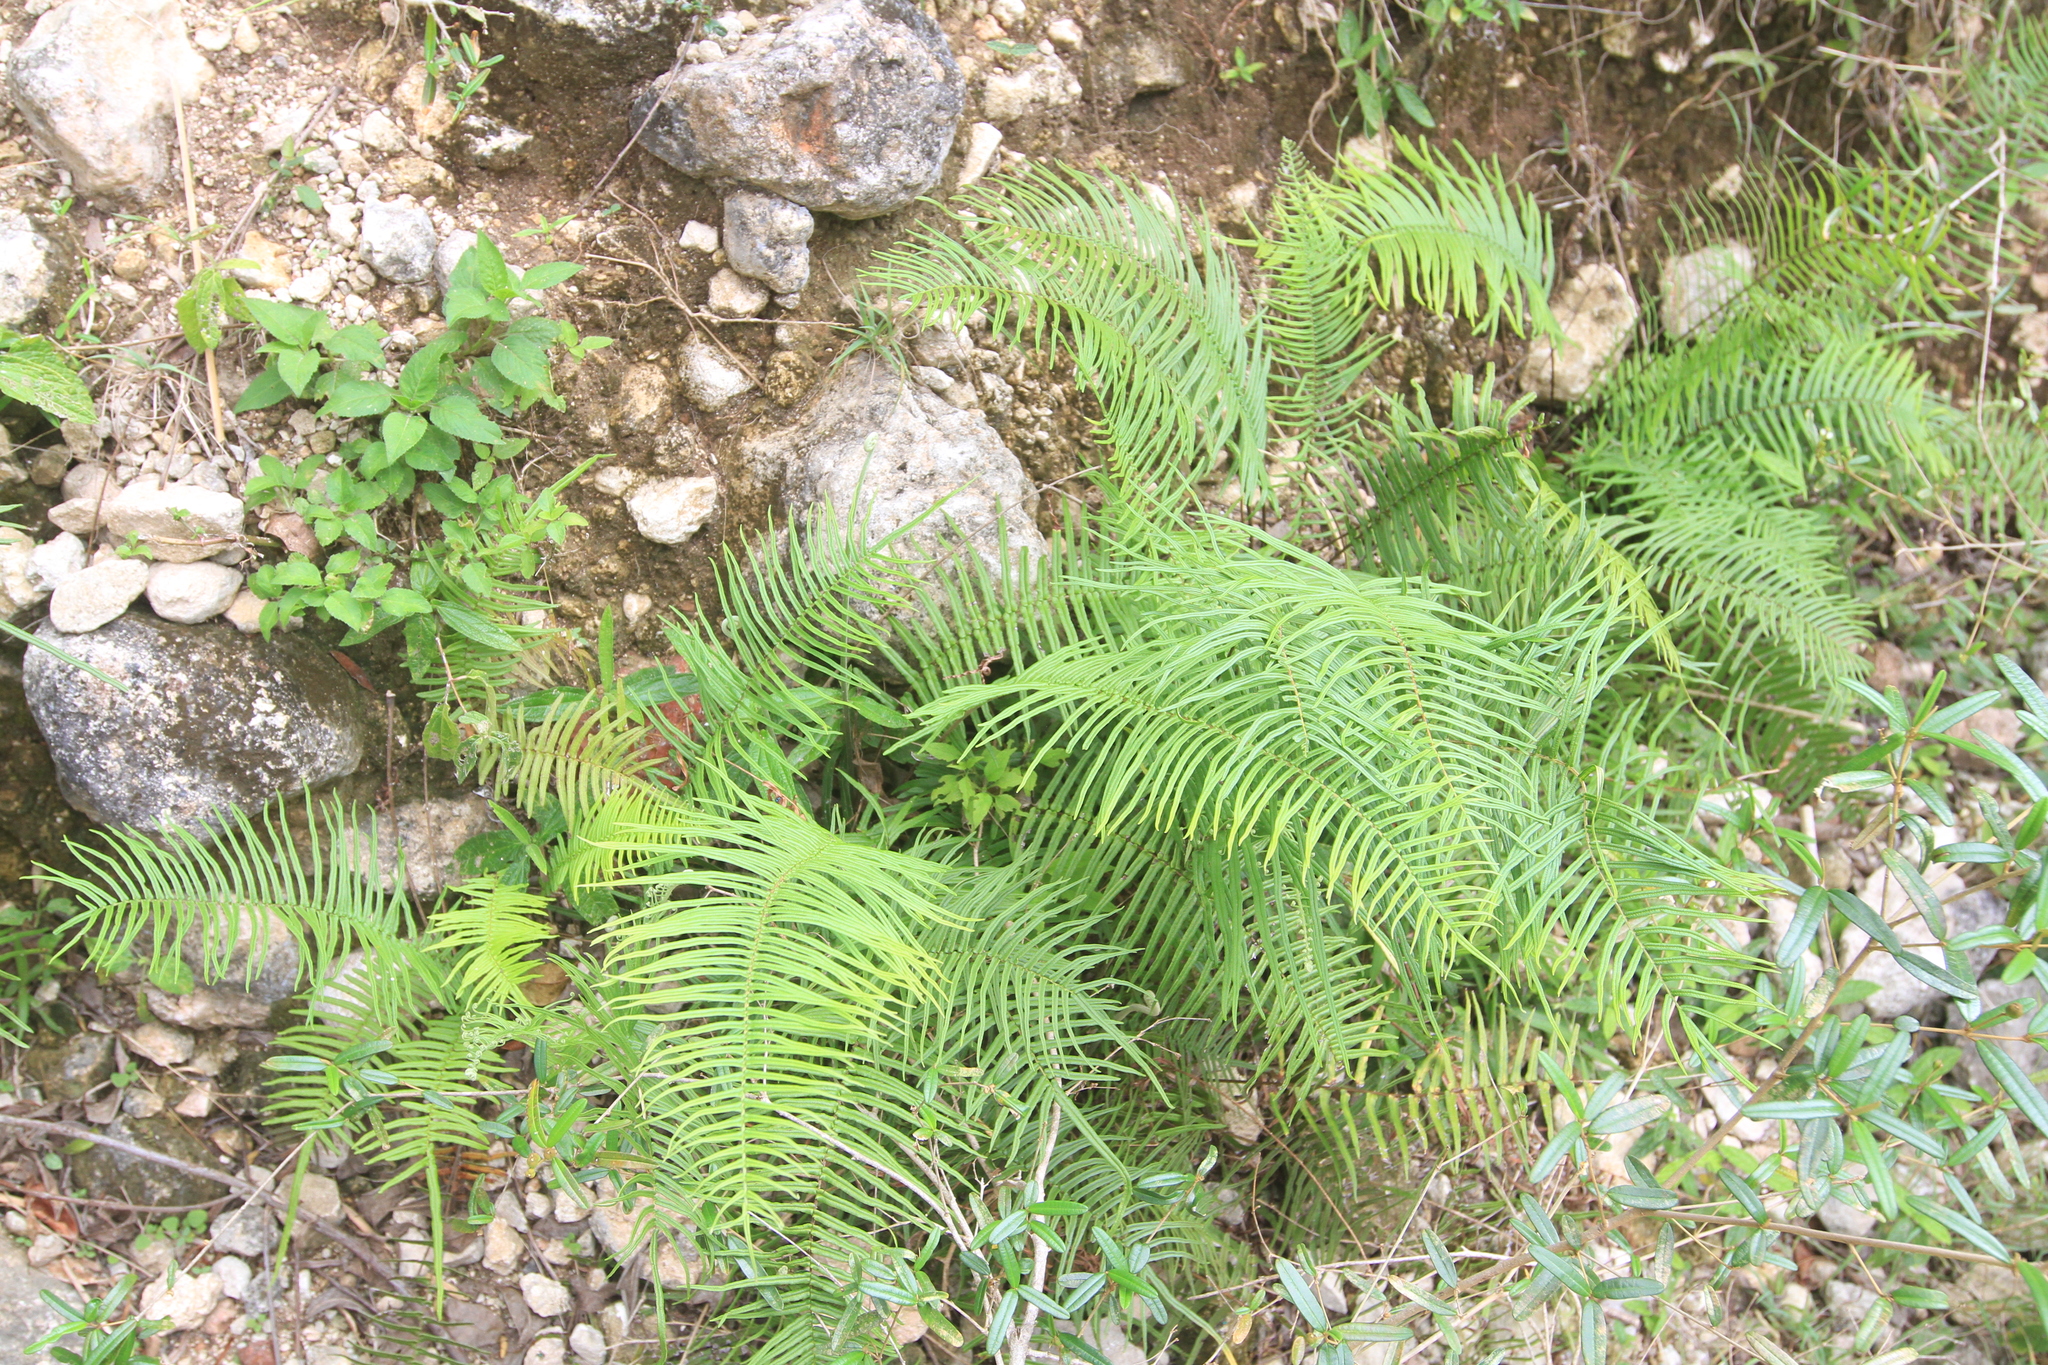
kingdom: Plantae
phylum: Tracheophyta
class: Polypodiopsida
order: Polypodiales
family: Pteridaceae
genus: Pteris
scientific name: Pteris longifolia
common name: Longleaf brake
